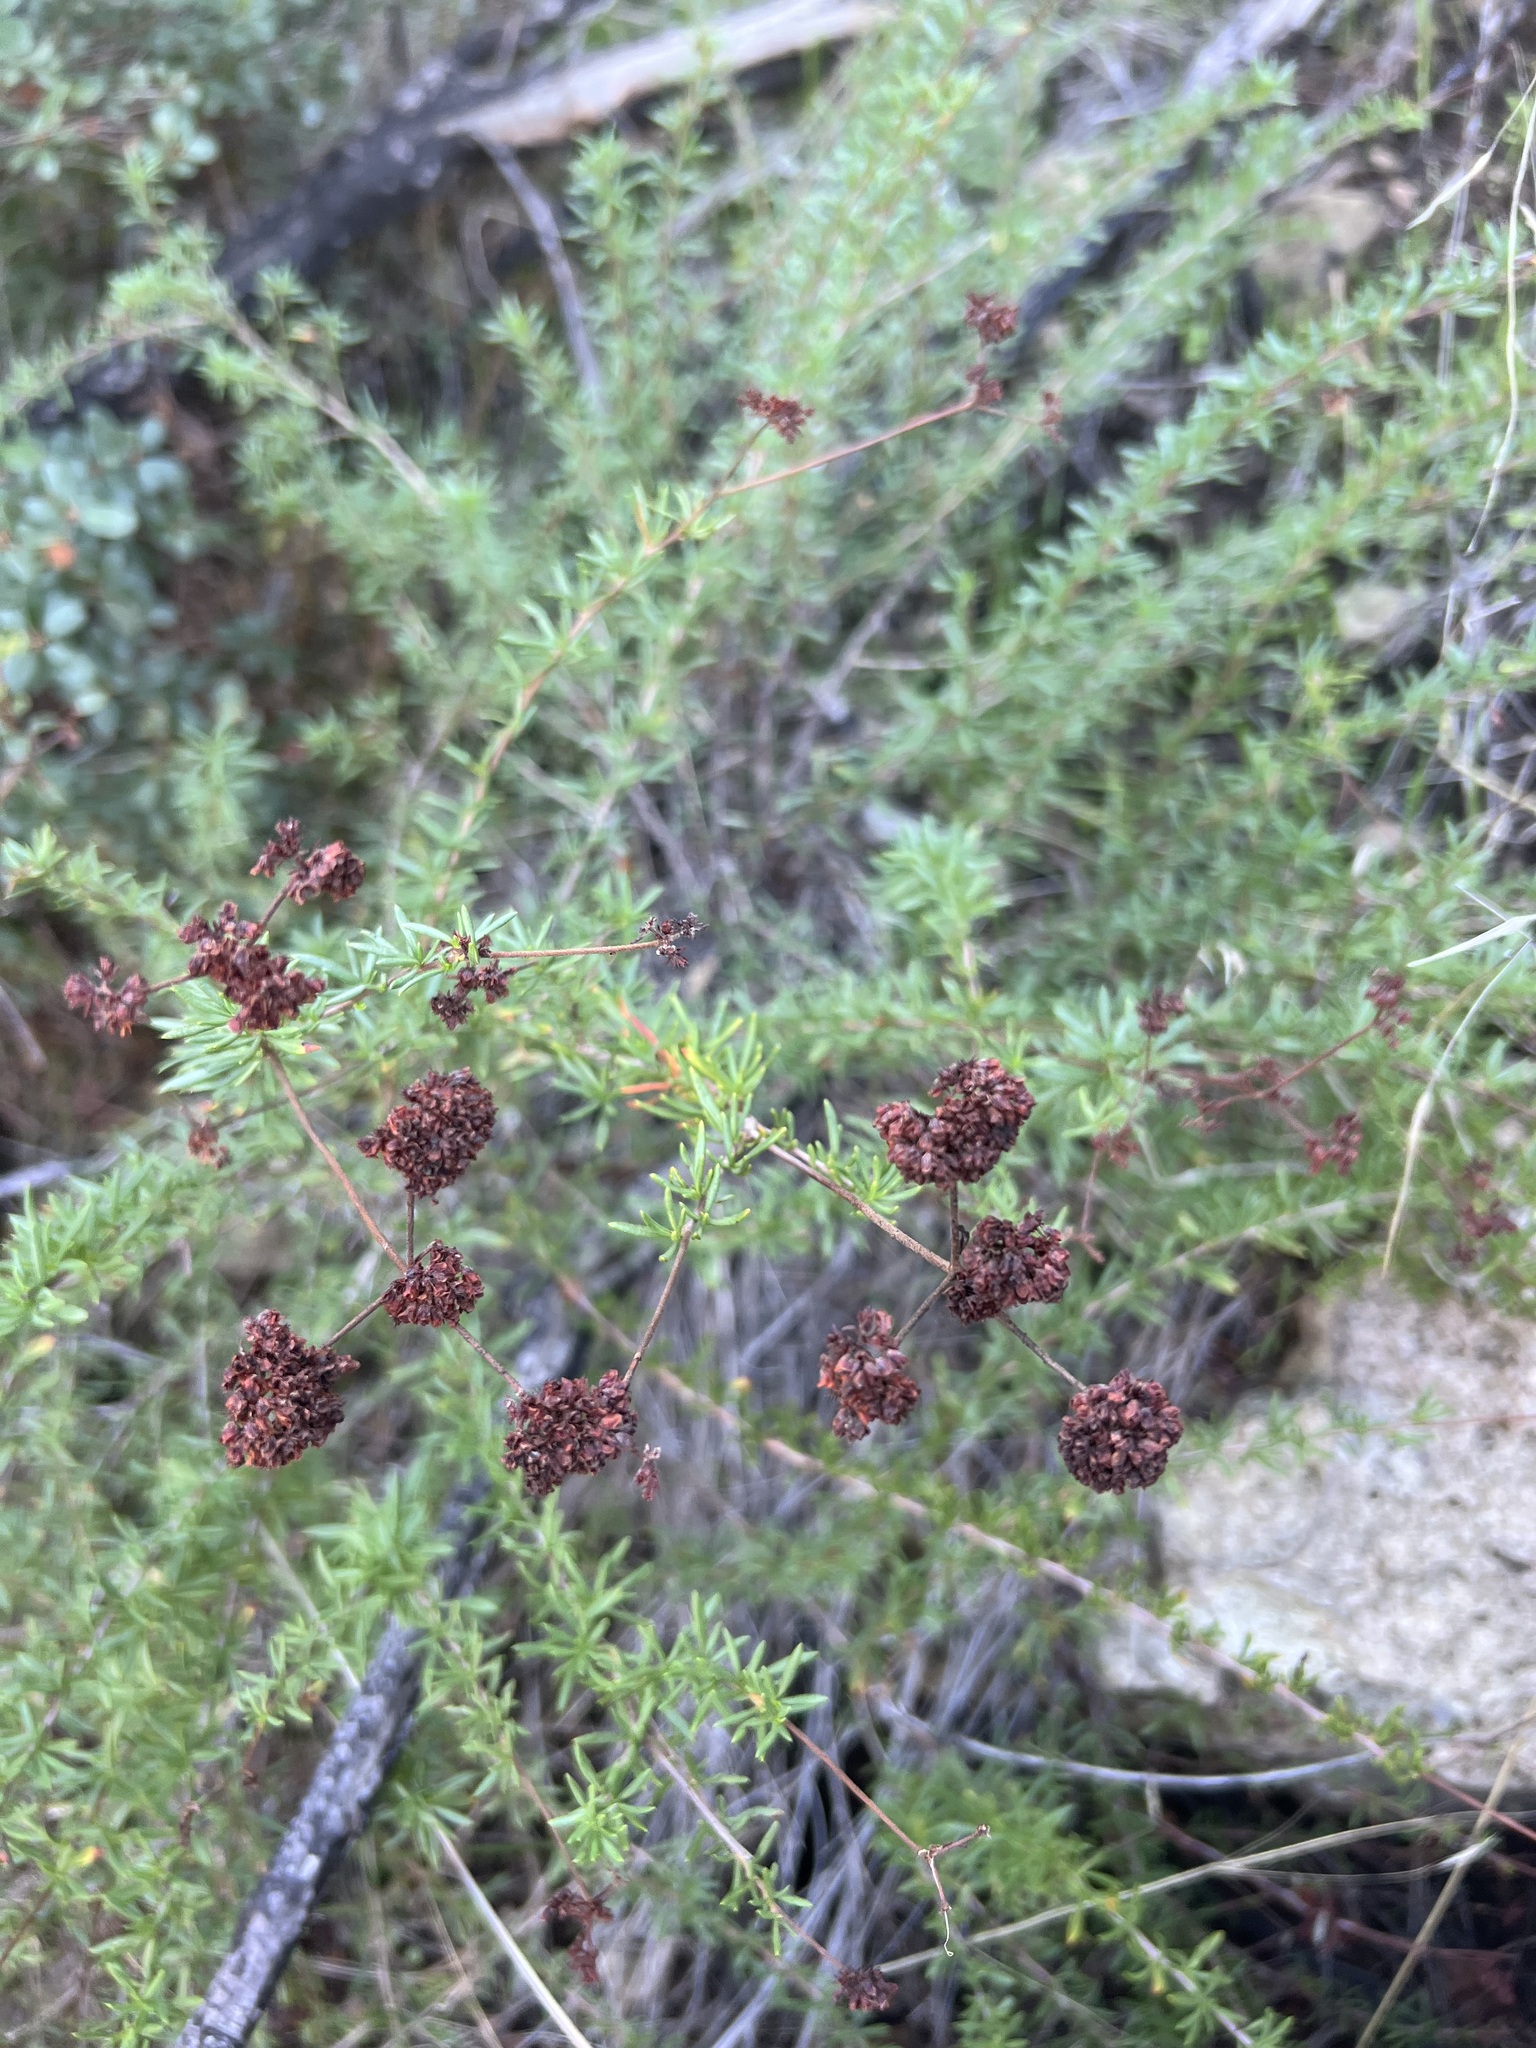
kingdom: Plantae
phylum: Tracheophyta
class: Magnoliopsida
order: Caryophyllales
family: Polygonaceae
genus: Eriogonum
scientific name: Eriogonum fasciculatum
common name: California wild buckwheat
